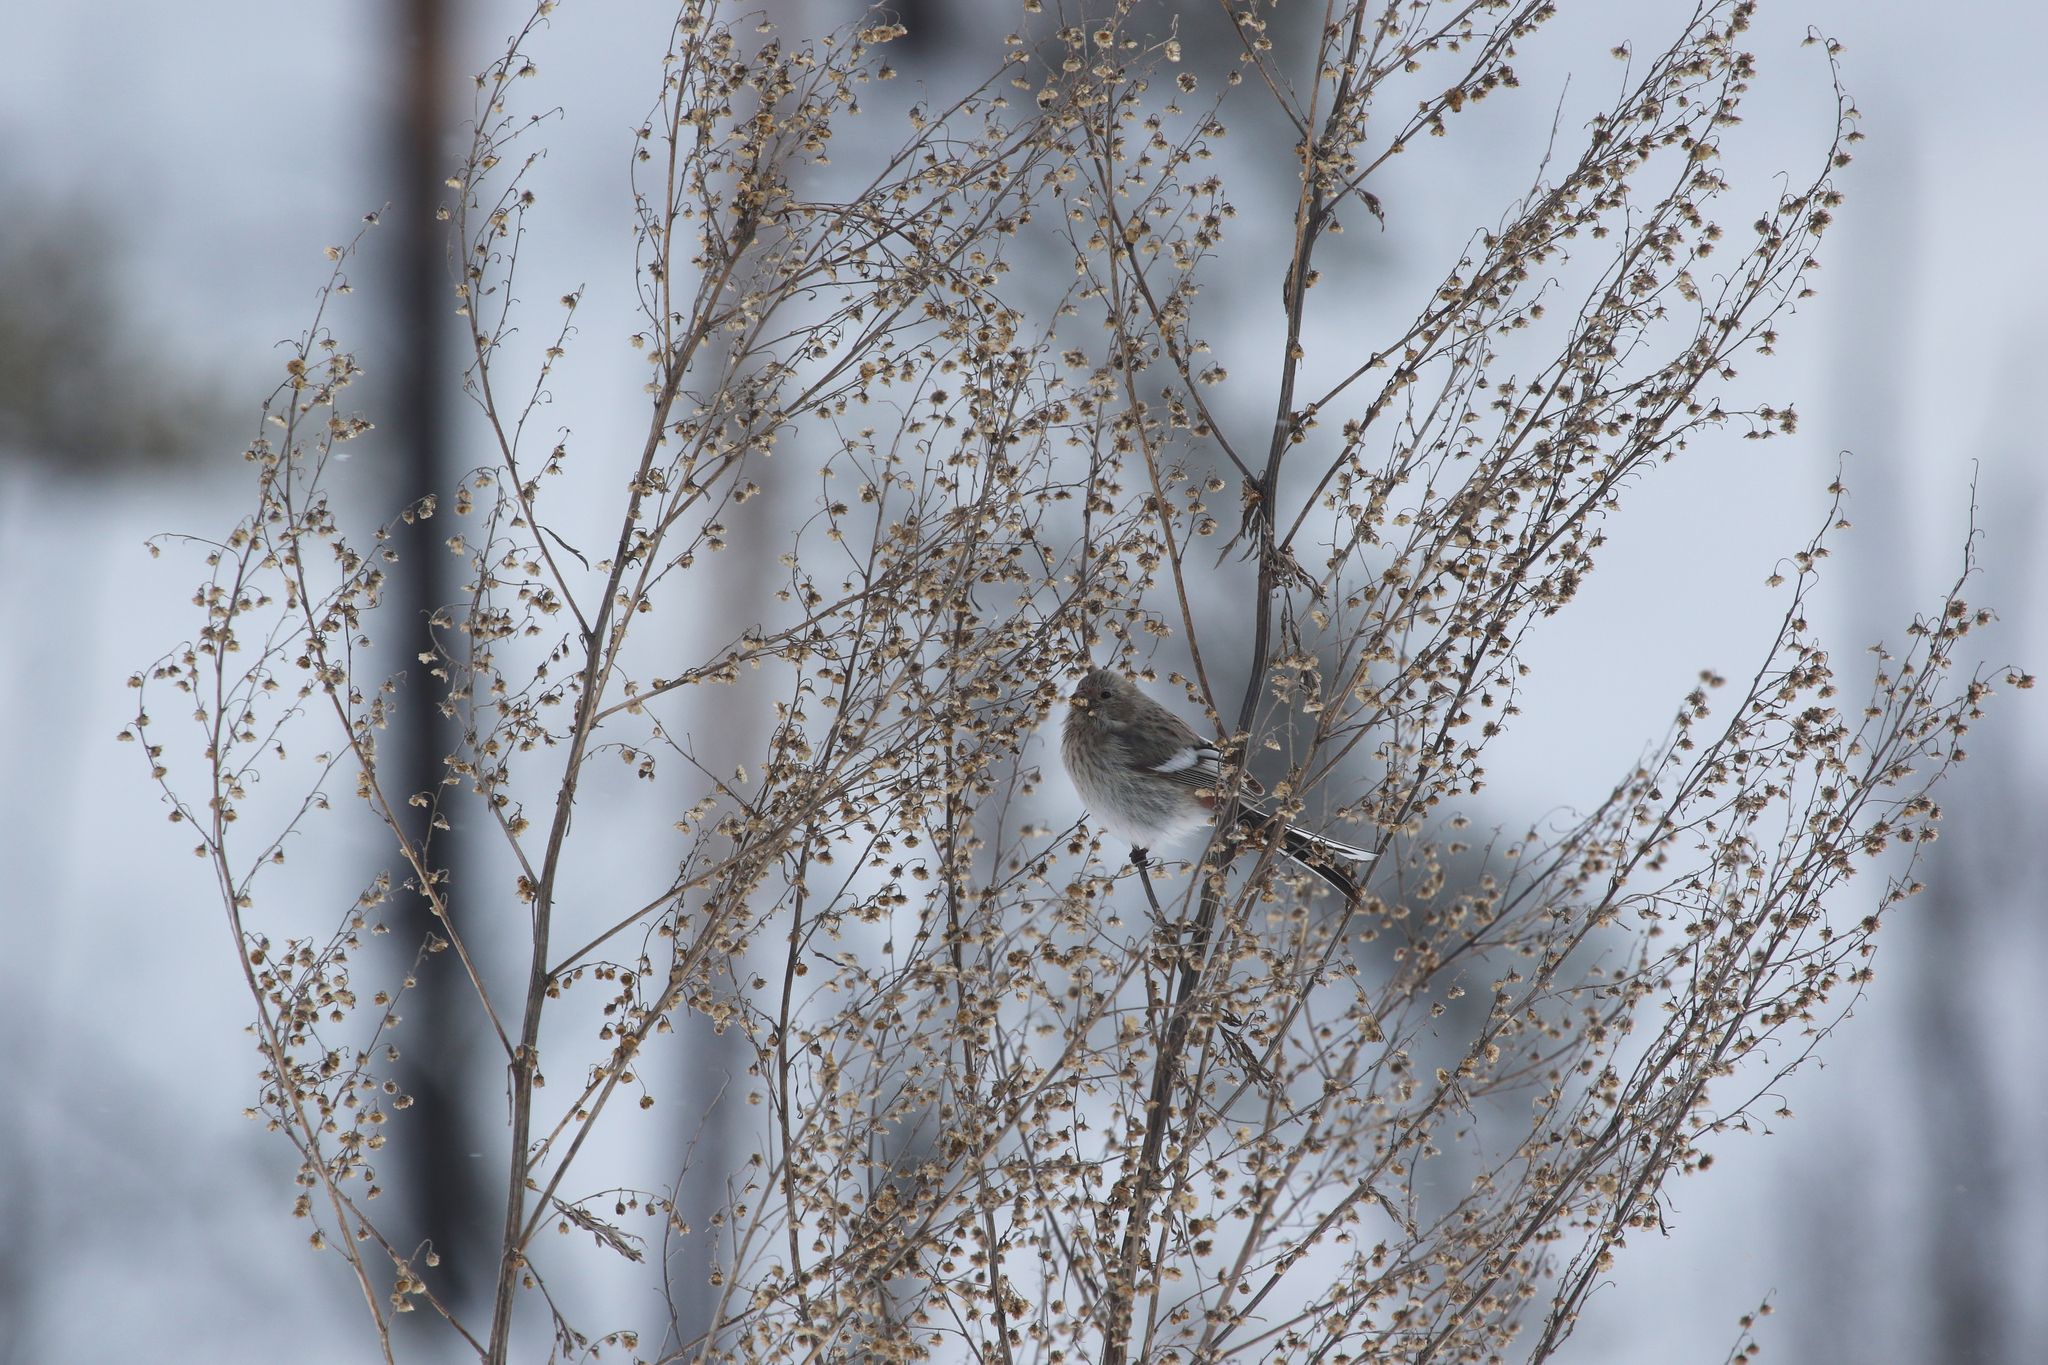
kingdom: Animalia
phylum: Chordata
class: Aves
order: Passeriformes
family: Fringillidae
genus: Carpodacus
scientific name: Carpodacus sibiricus
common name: Long-tailed rosefinch
